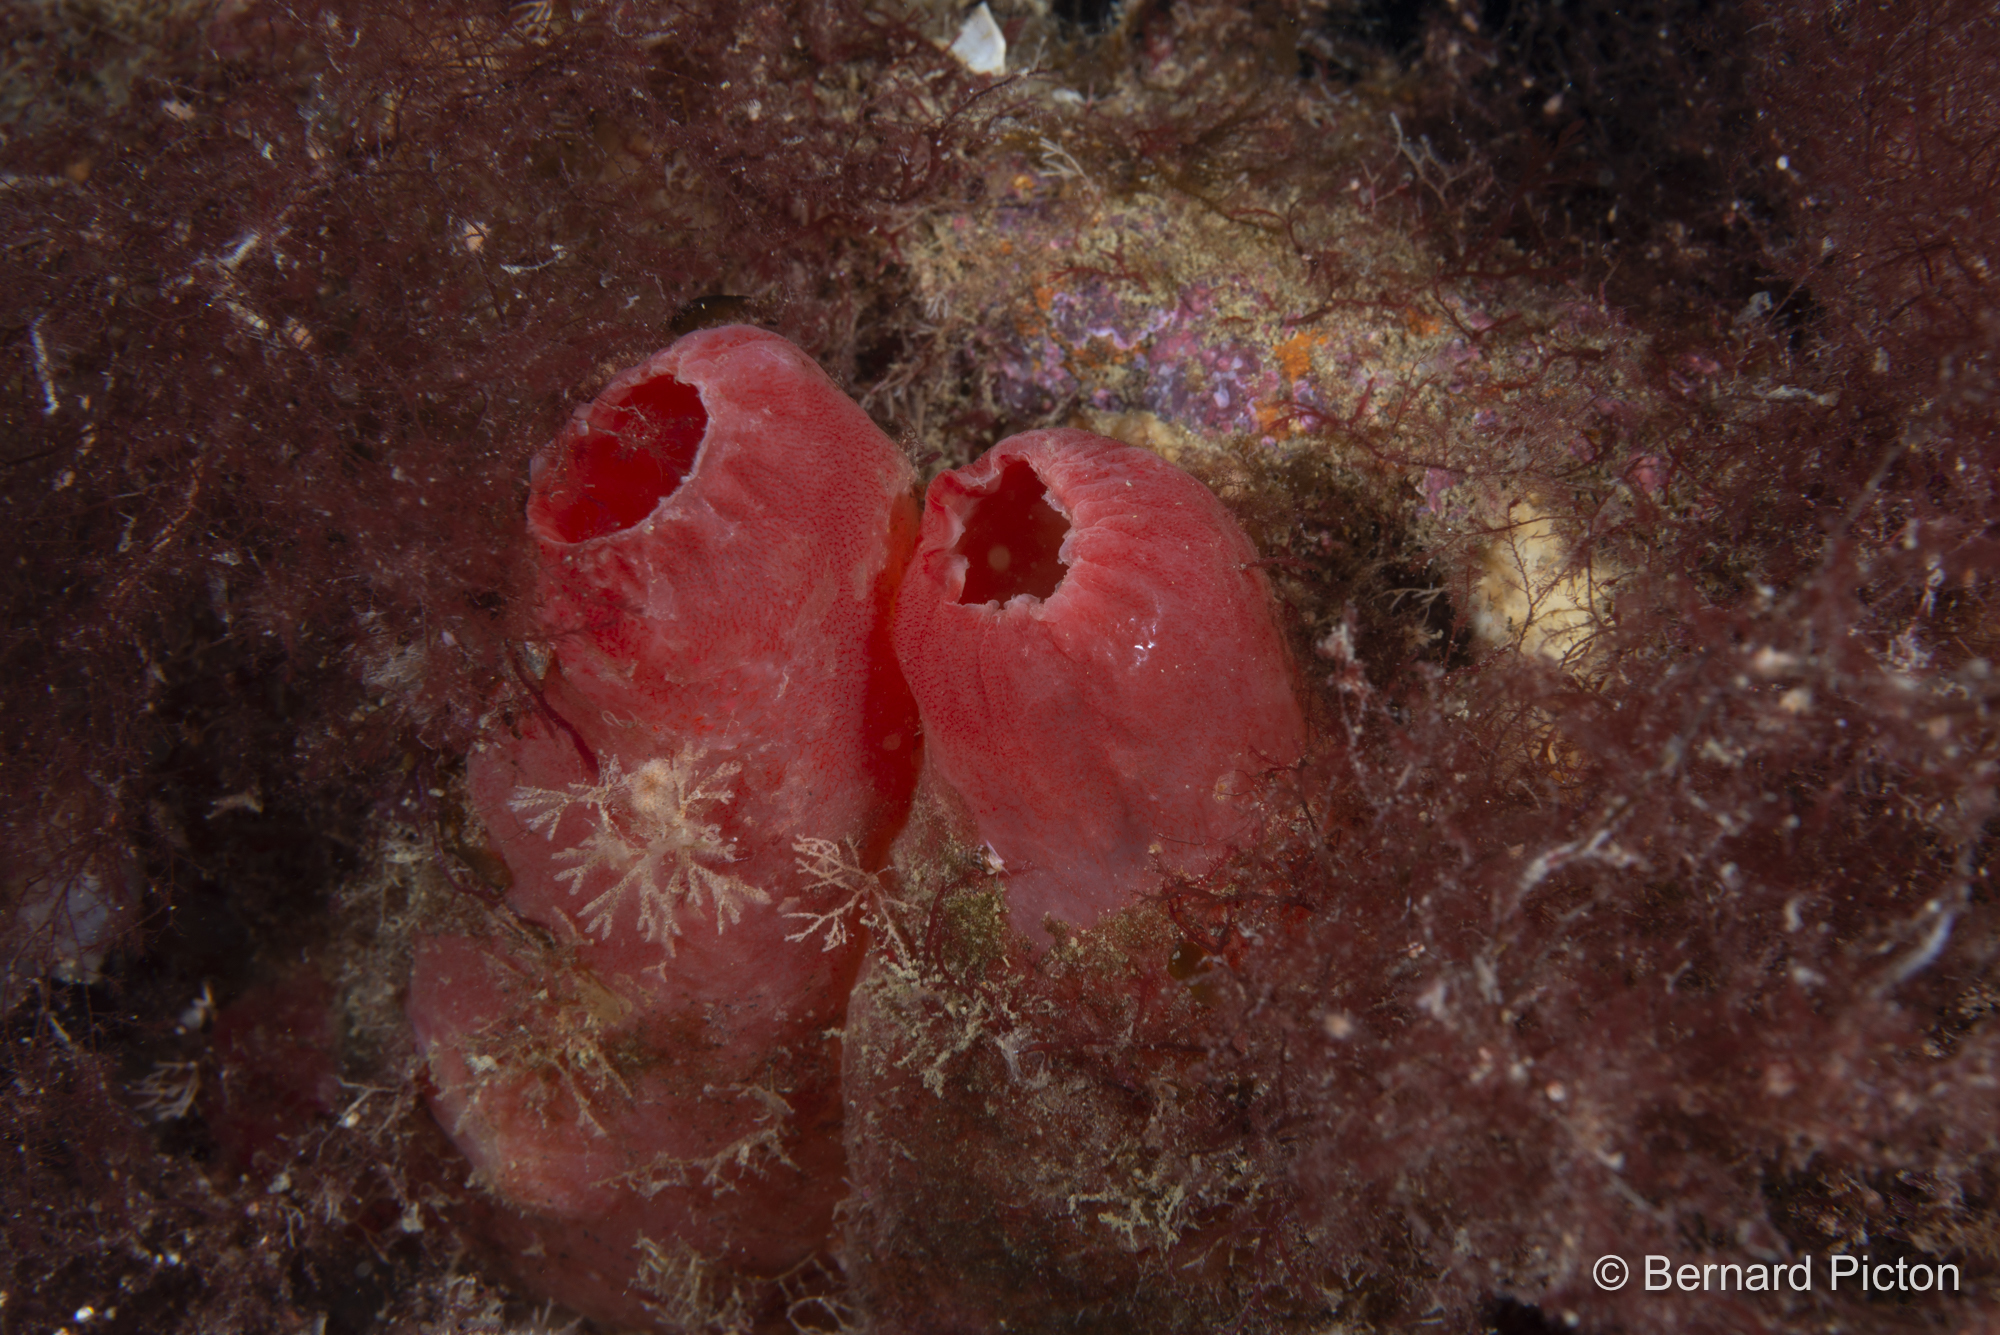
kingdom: Animalia
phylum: Chordata
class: Ascidiacea
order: Phlebobranchia
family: Ascidiidae
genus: Ascidia
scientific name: Ascidia mentula
